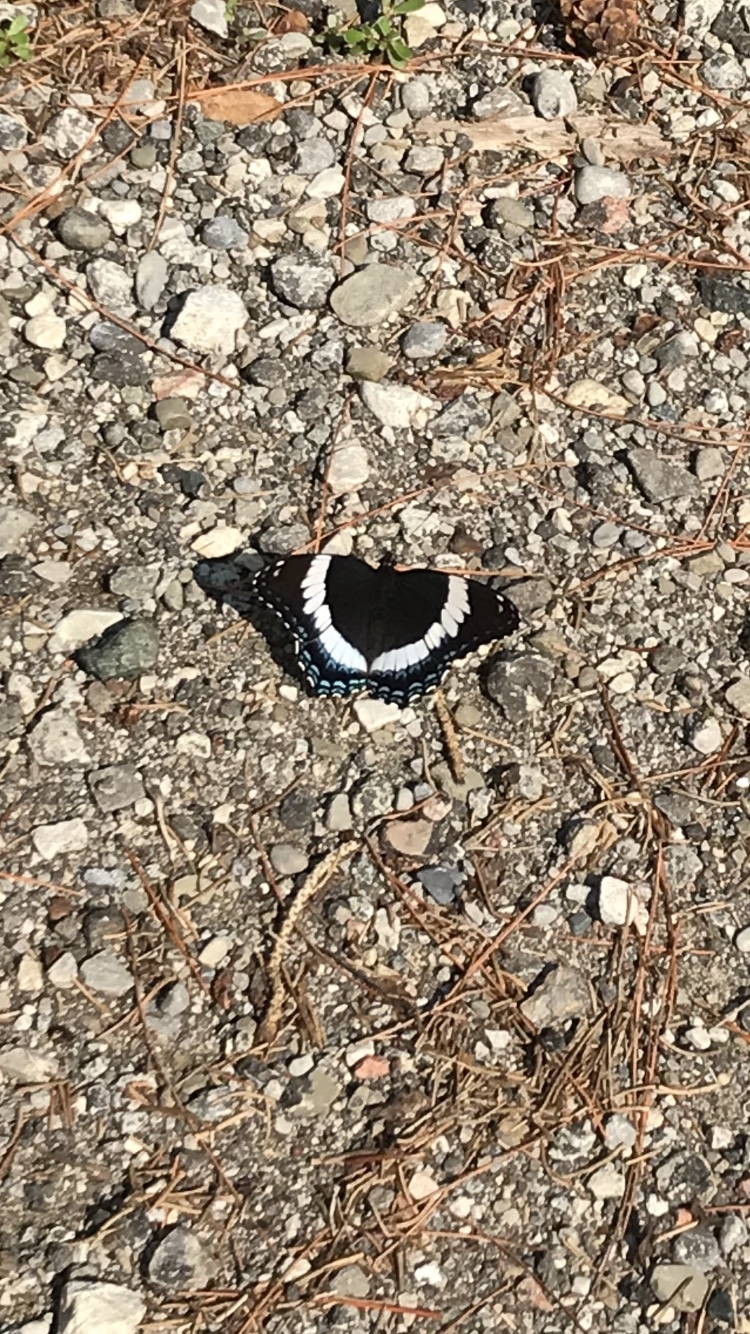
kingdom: Animalia
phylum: Arthropoda
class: Insecta
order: Lepidoptera
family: Nymphalidae
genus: Limenitis
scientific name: Limenitis arthemis
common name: Red-spotted admiral
